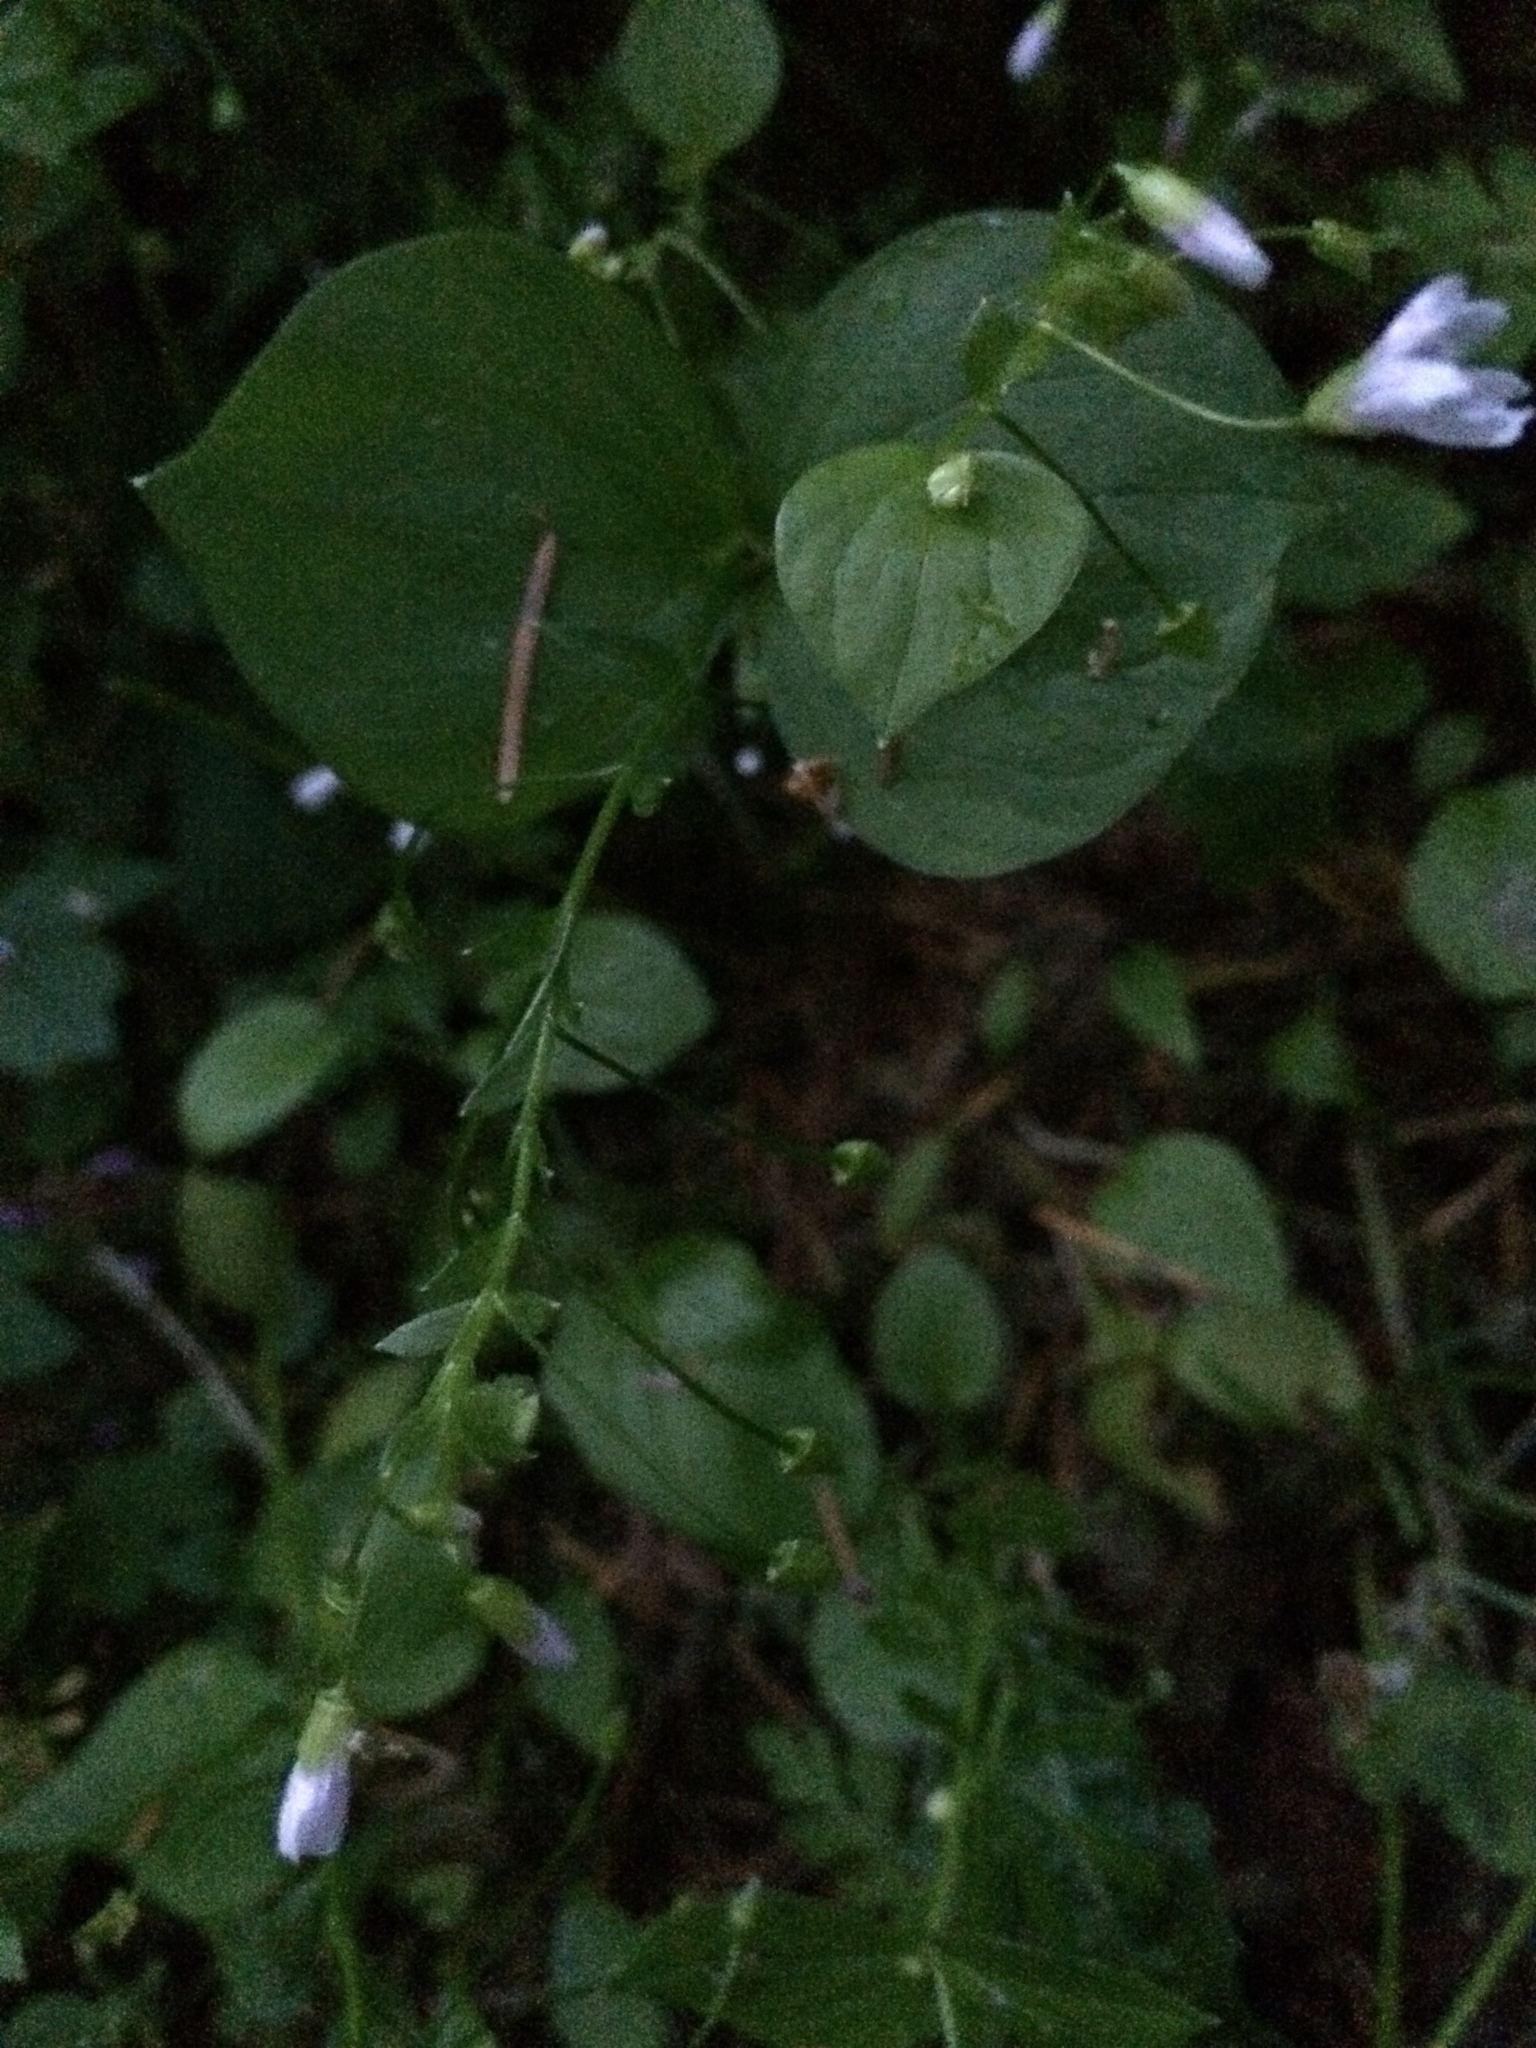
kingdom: Plantae
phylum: Tracheophyta
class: Magnoliopsida
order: Caryophyllales
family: Montiaceae
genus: Claytonia
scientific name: Claytonia sibirica
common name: Pink purslane
